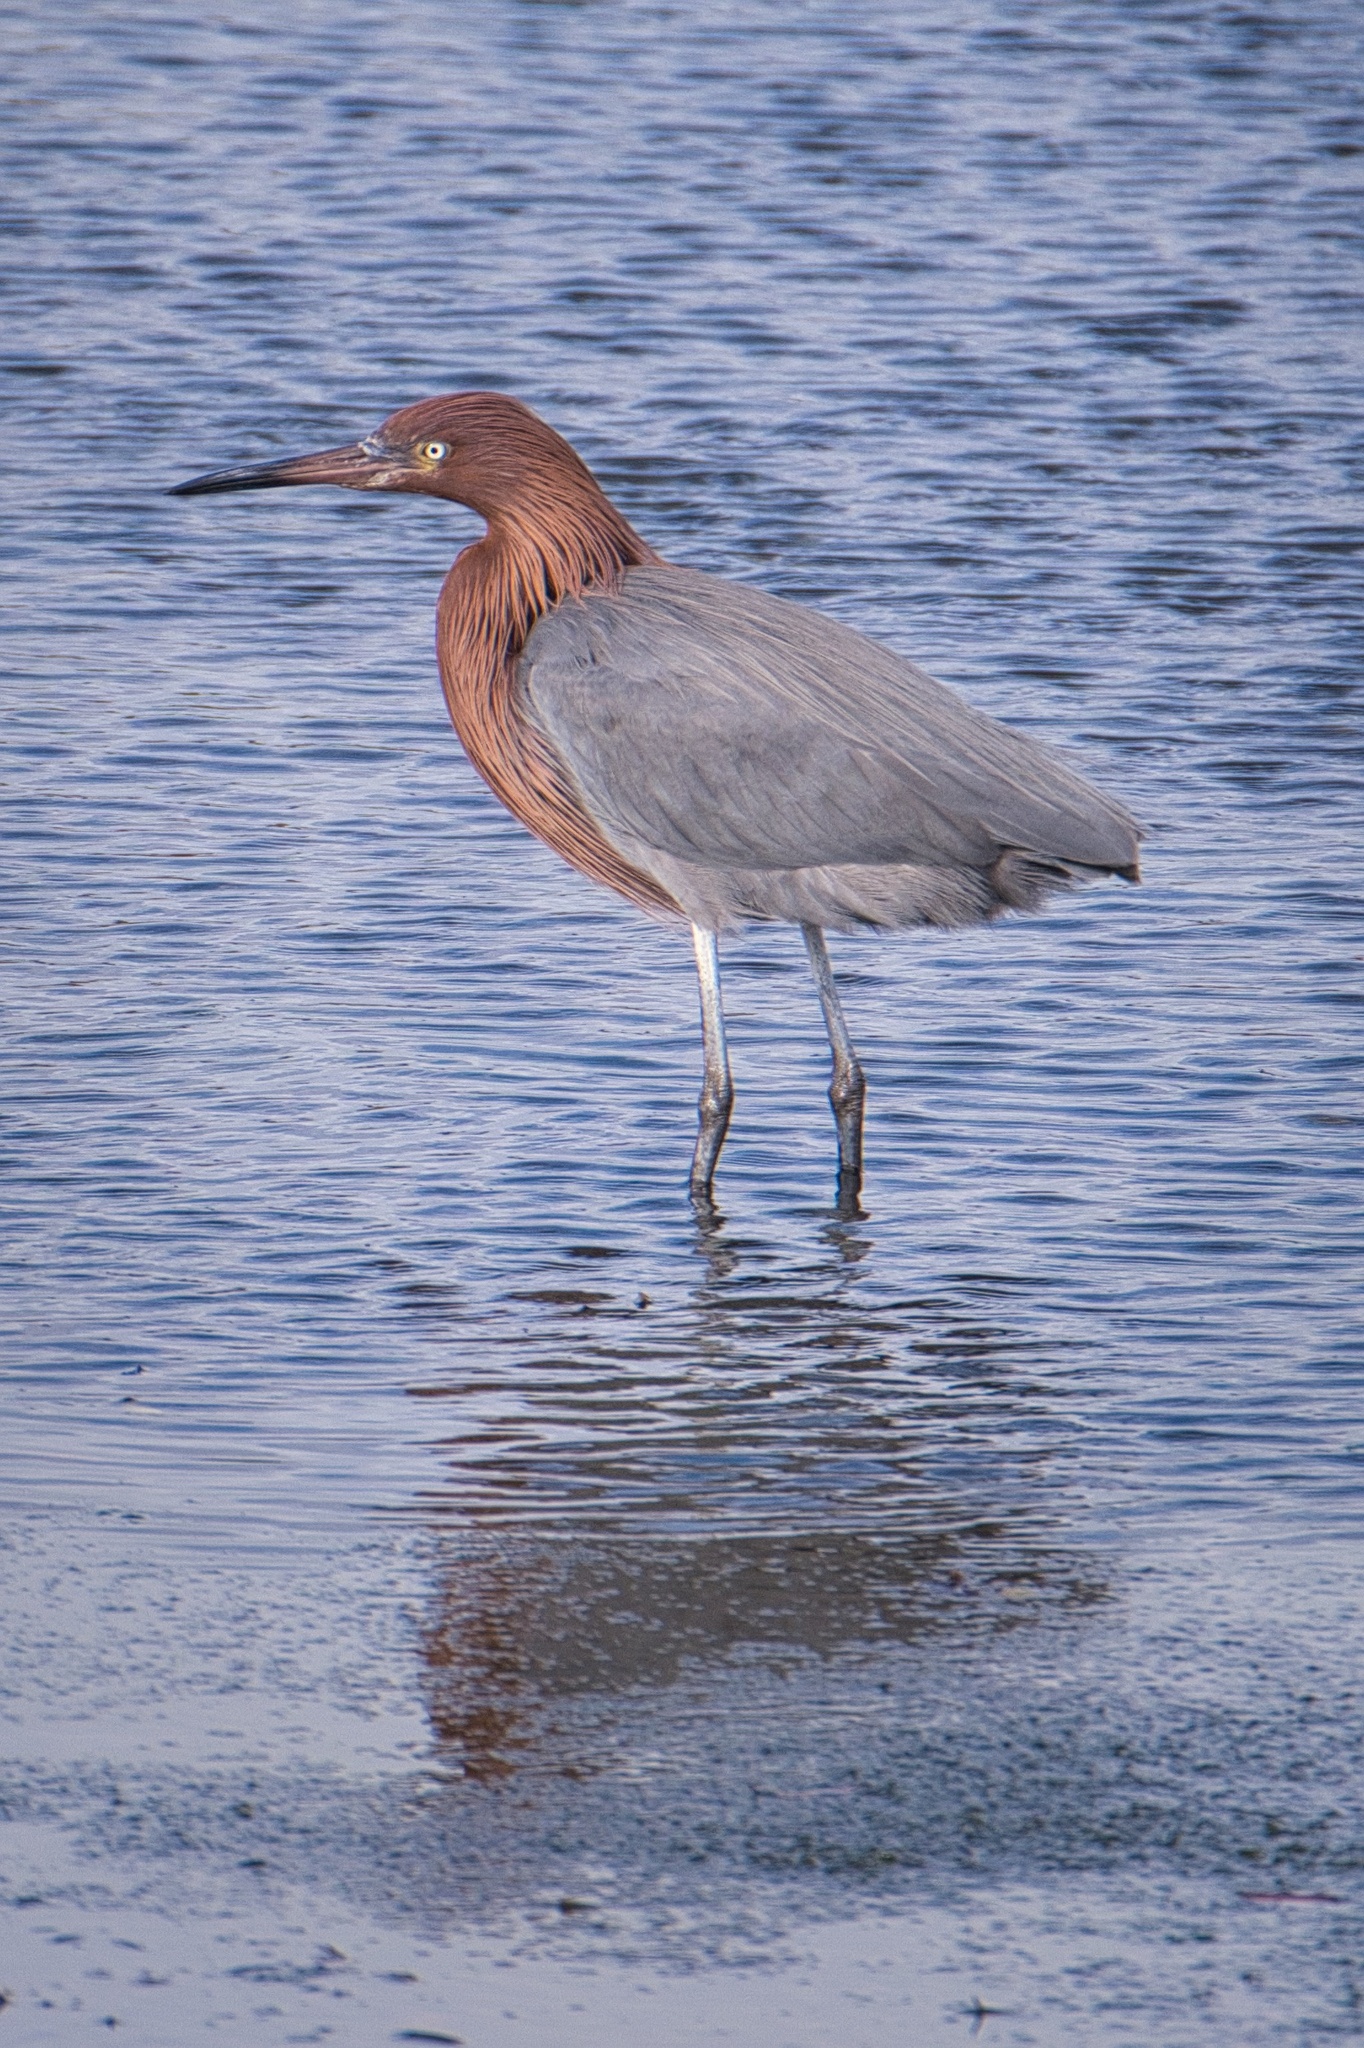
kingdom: Animalia
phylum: Chordata
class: Aves
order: Pelecaniformes
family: Ardeidae
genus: Egretta
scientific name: Egretta rufescens
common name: Reddish egret
